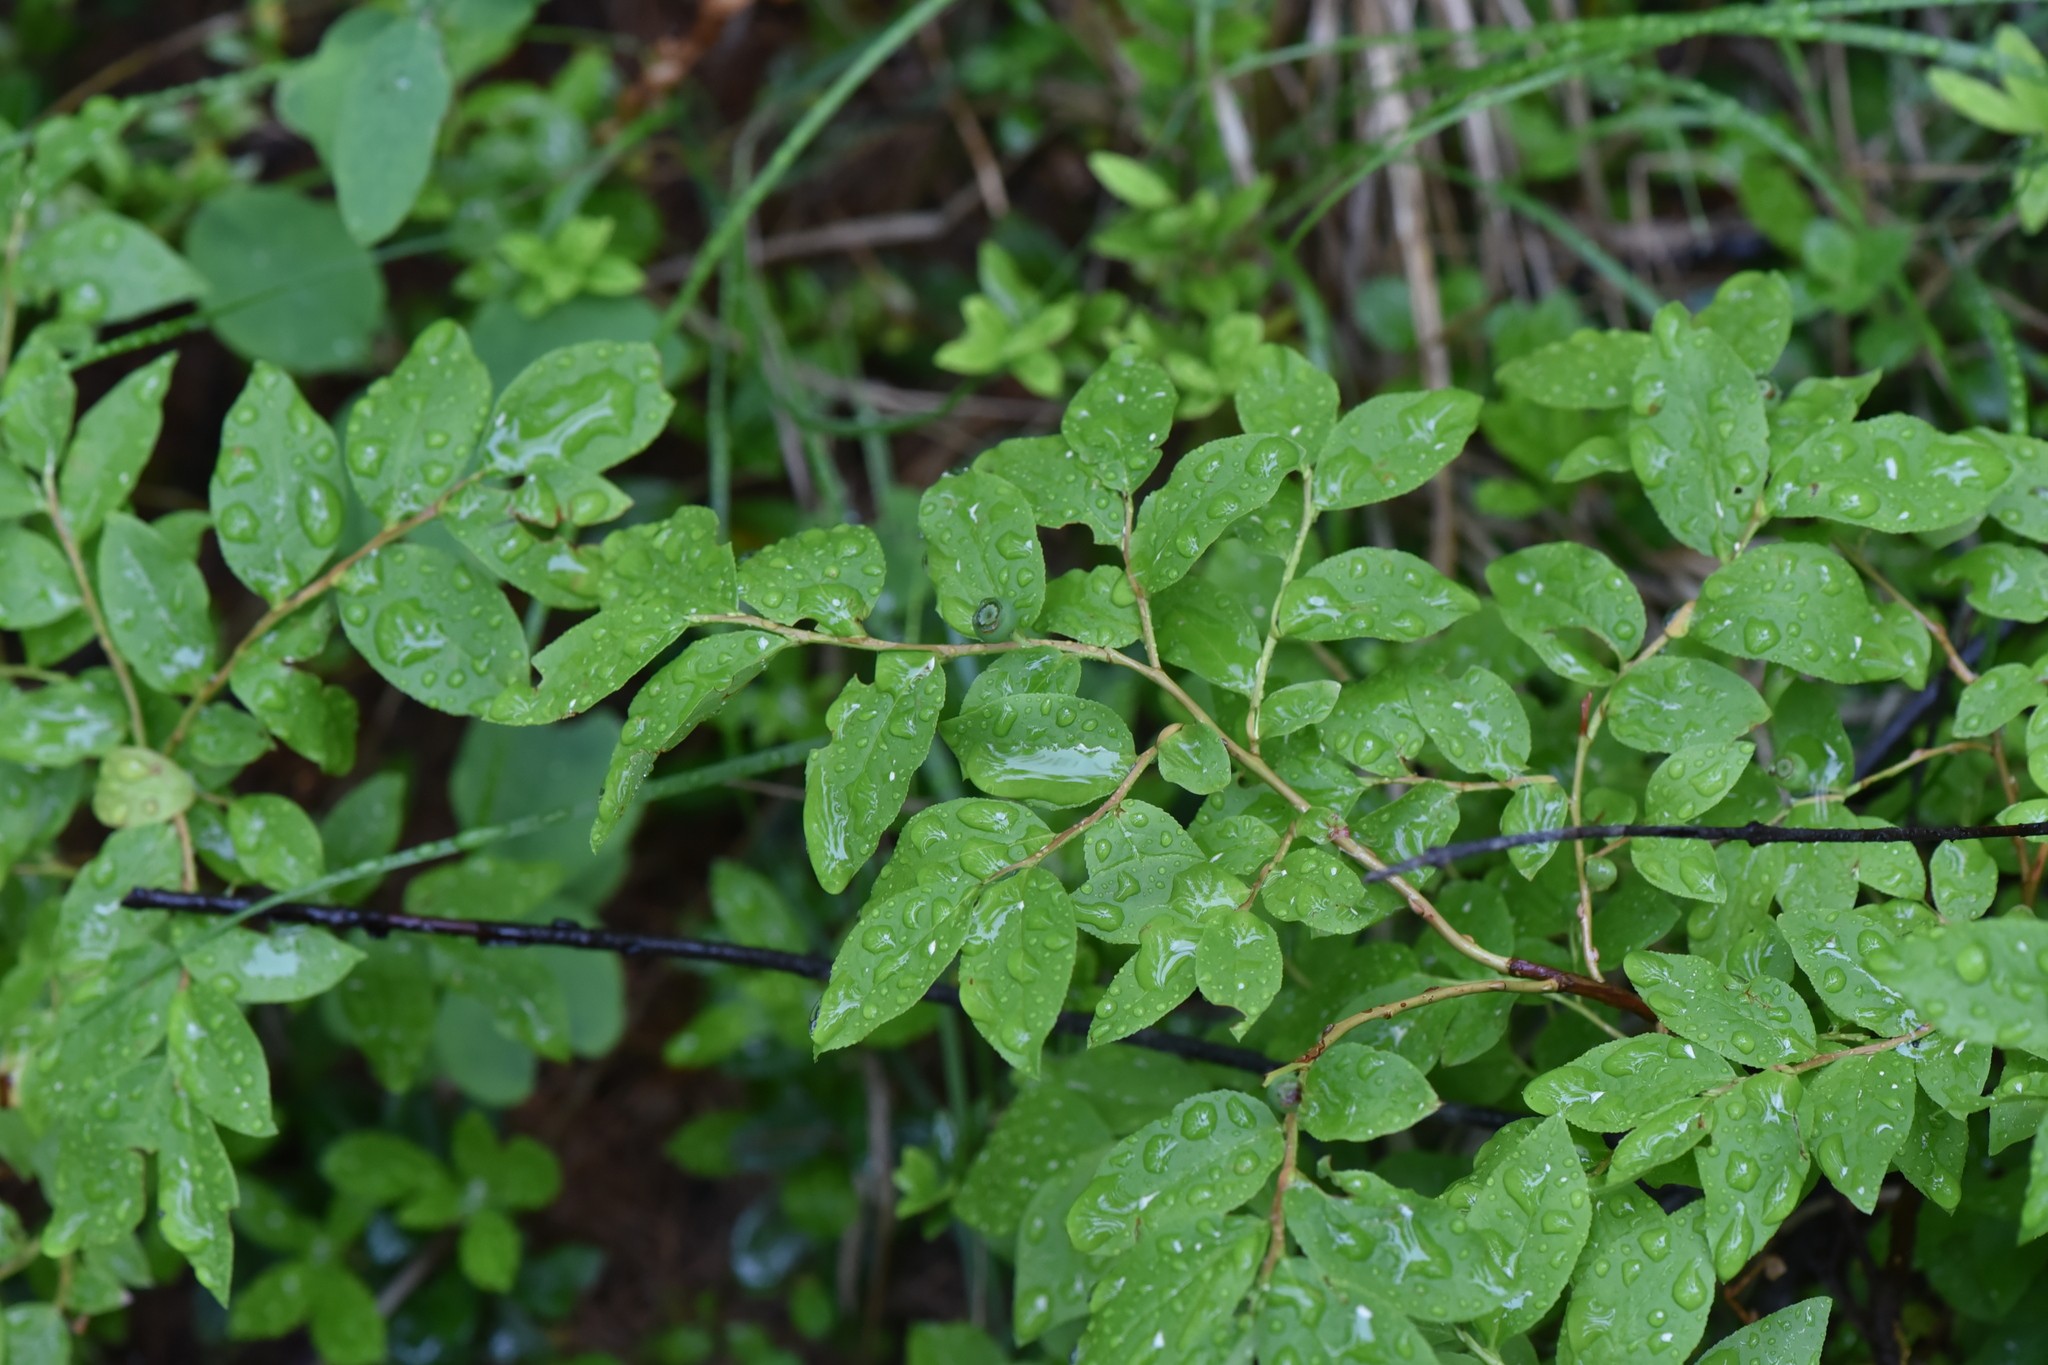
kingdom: Plantae
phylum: Tracheophyta
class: Magnoliopsida
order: Ericales
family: Ericaceae
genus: Vaccinium
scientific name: Vaccinium membranaceum
